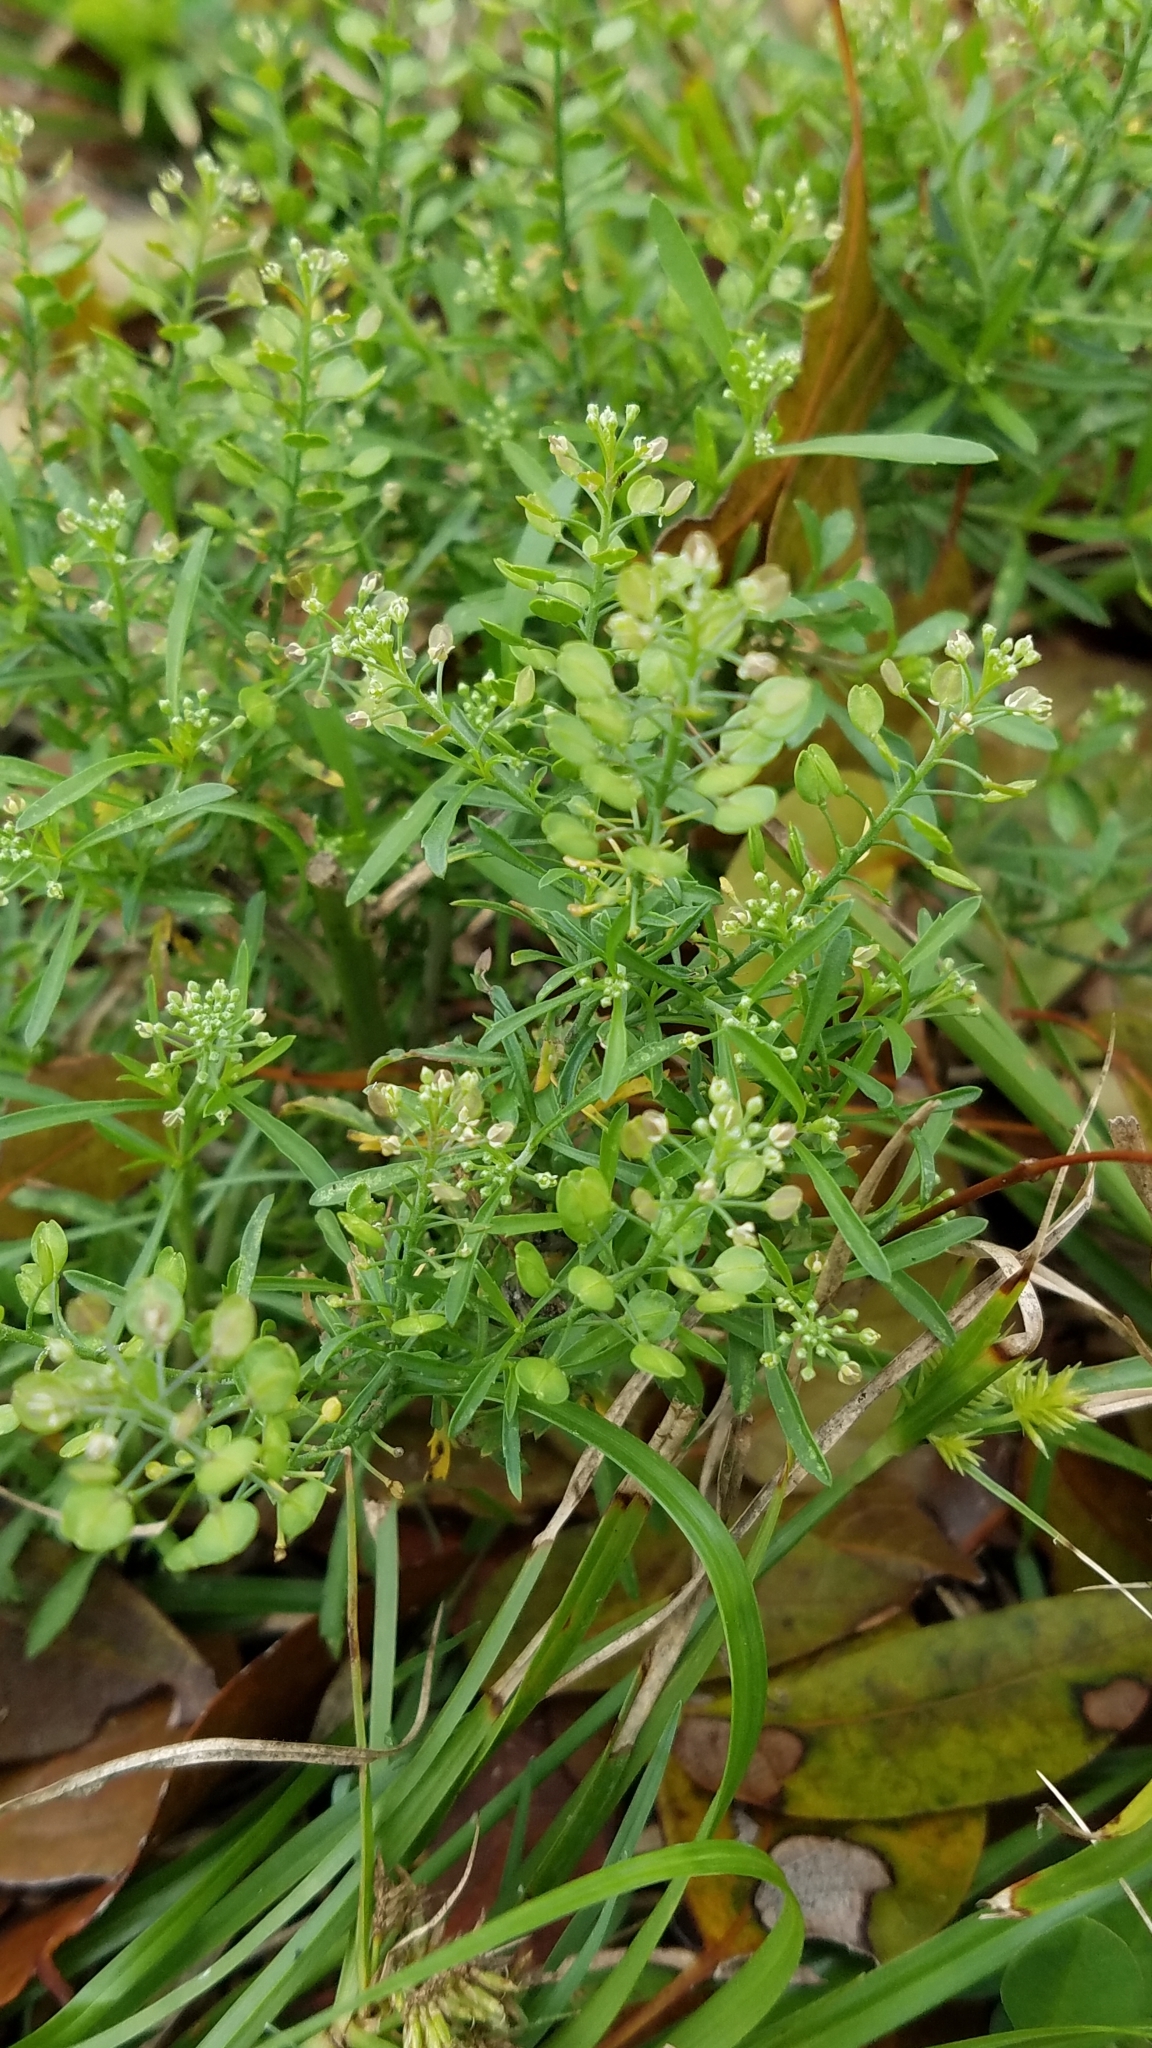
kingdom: Plantae
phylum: Tracheophyta
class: Magnoliopsida
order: Brassicales
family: Brassicaceae
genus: Lepidium
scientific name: Lepidium virginicum
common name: Least pepperwort
